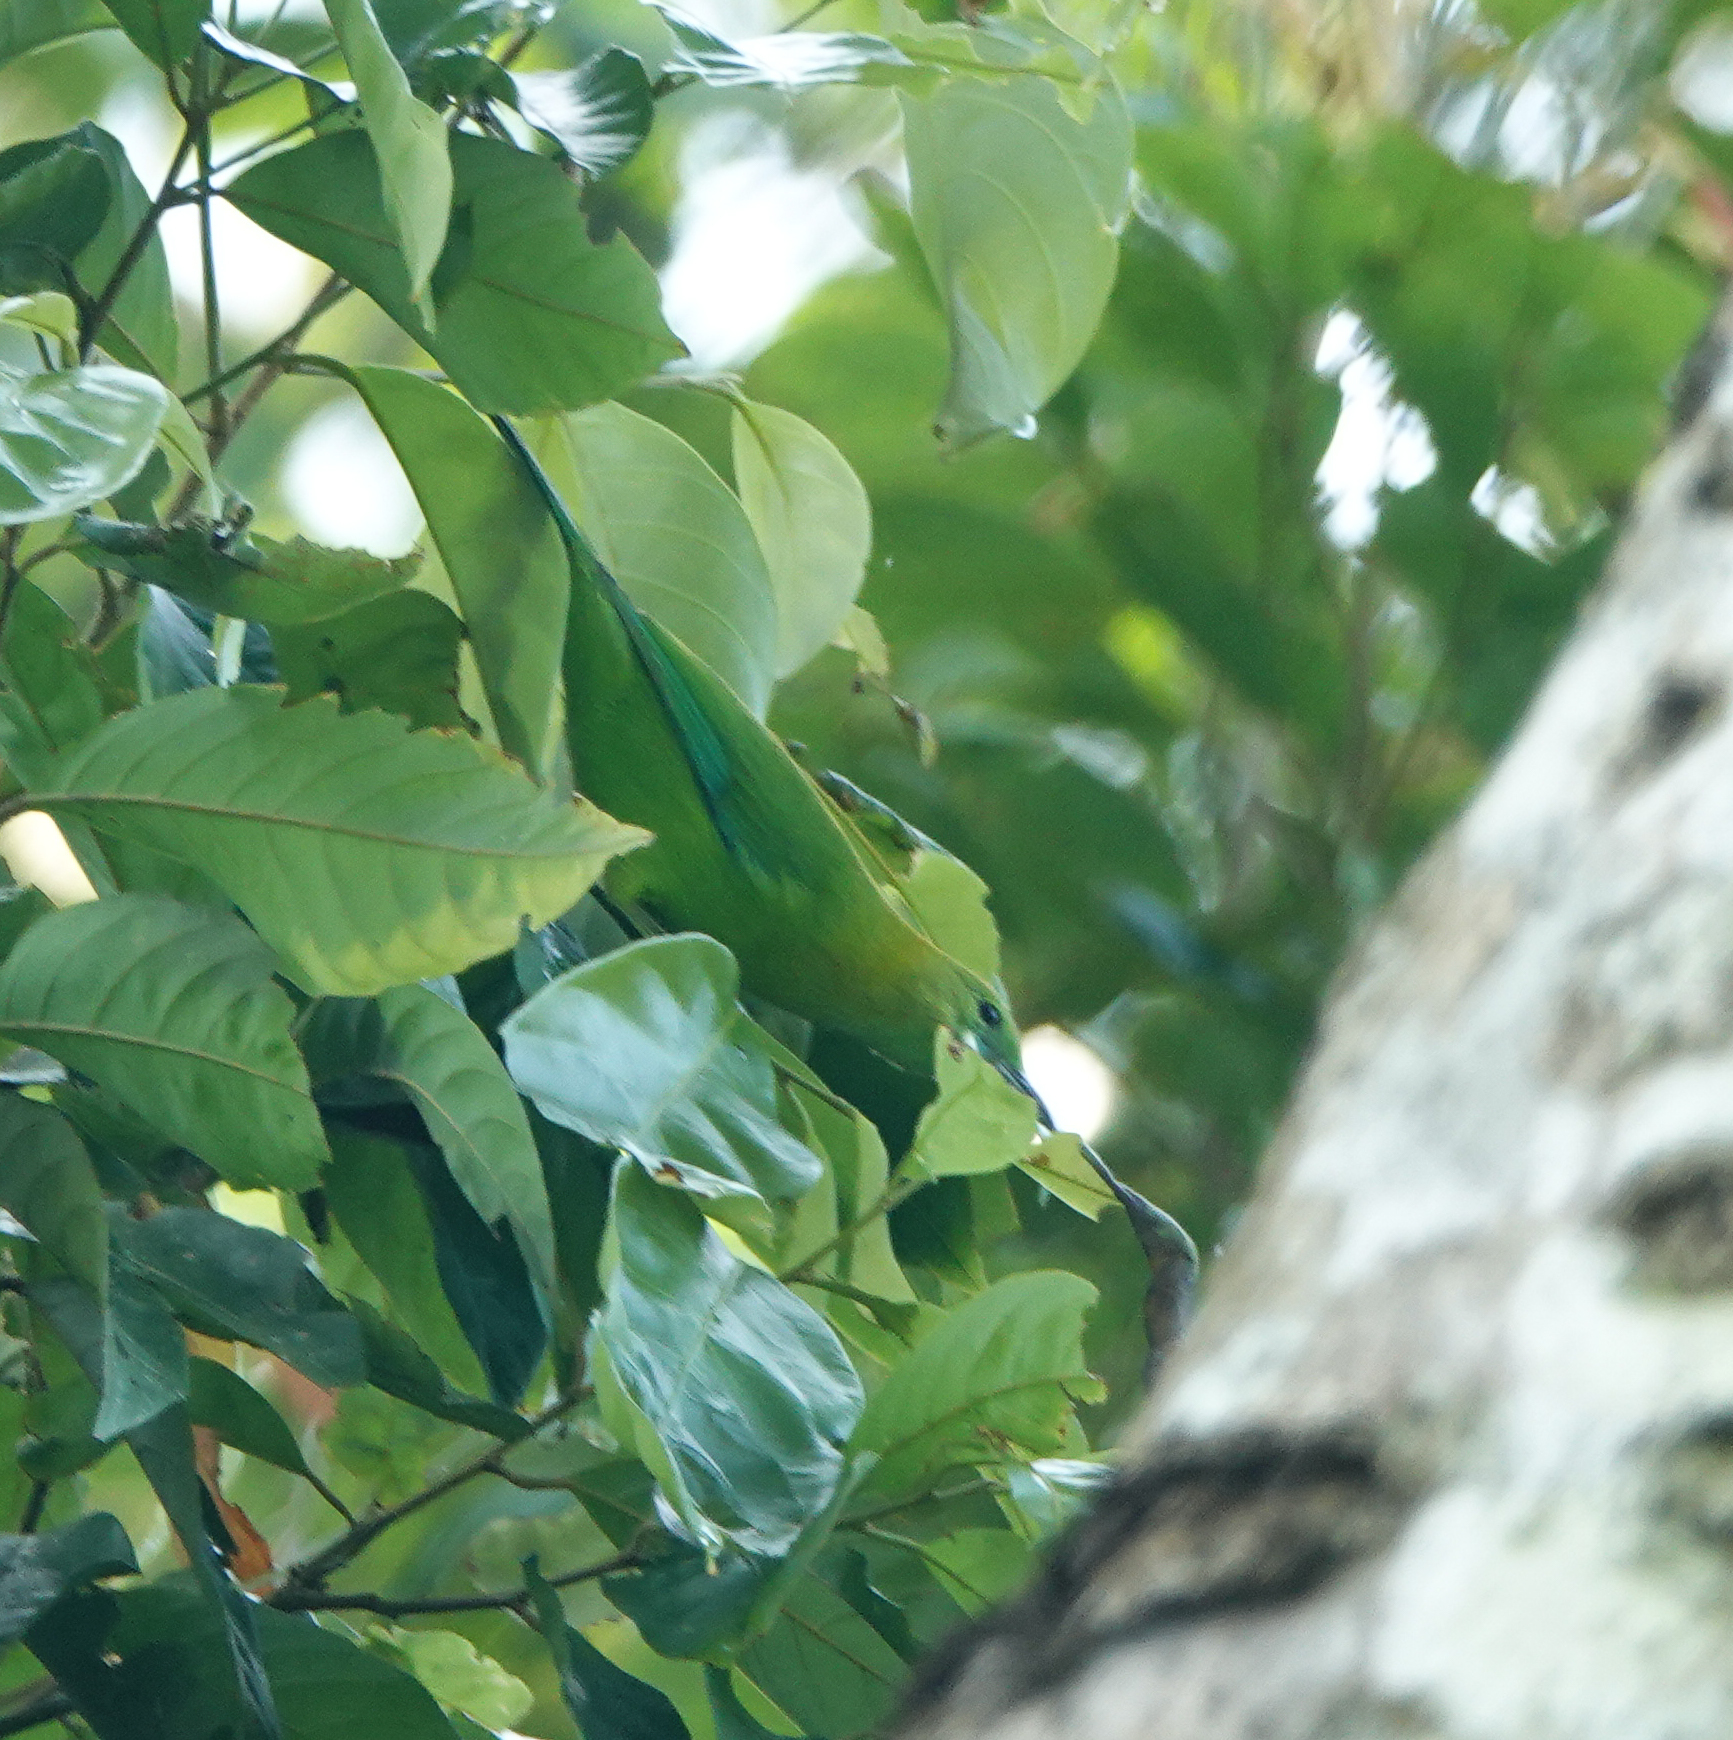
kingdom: Animalia
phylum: Chordata
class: Aves
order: Passeriformes
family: Chloropseidae
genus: Chloropsis
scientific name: Chloropsis moluccensis
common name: Blue-winged leafbird
